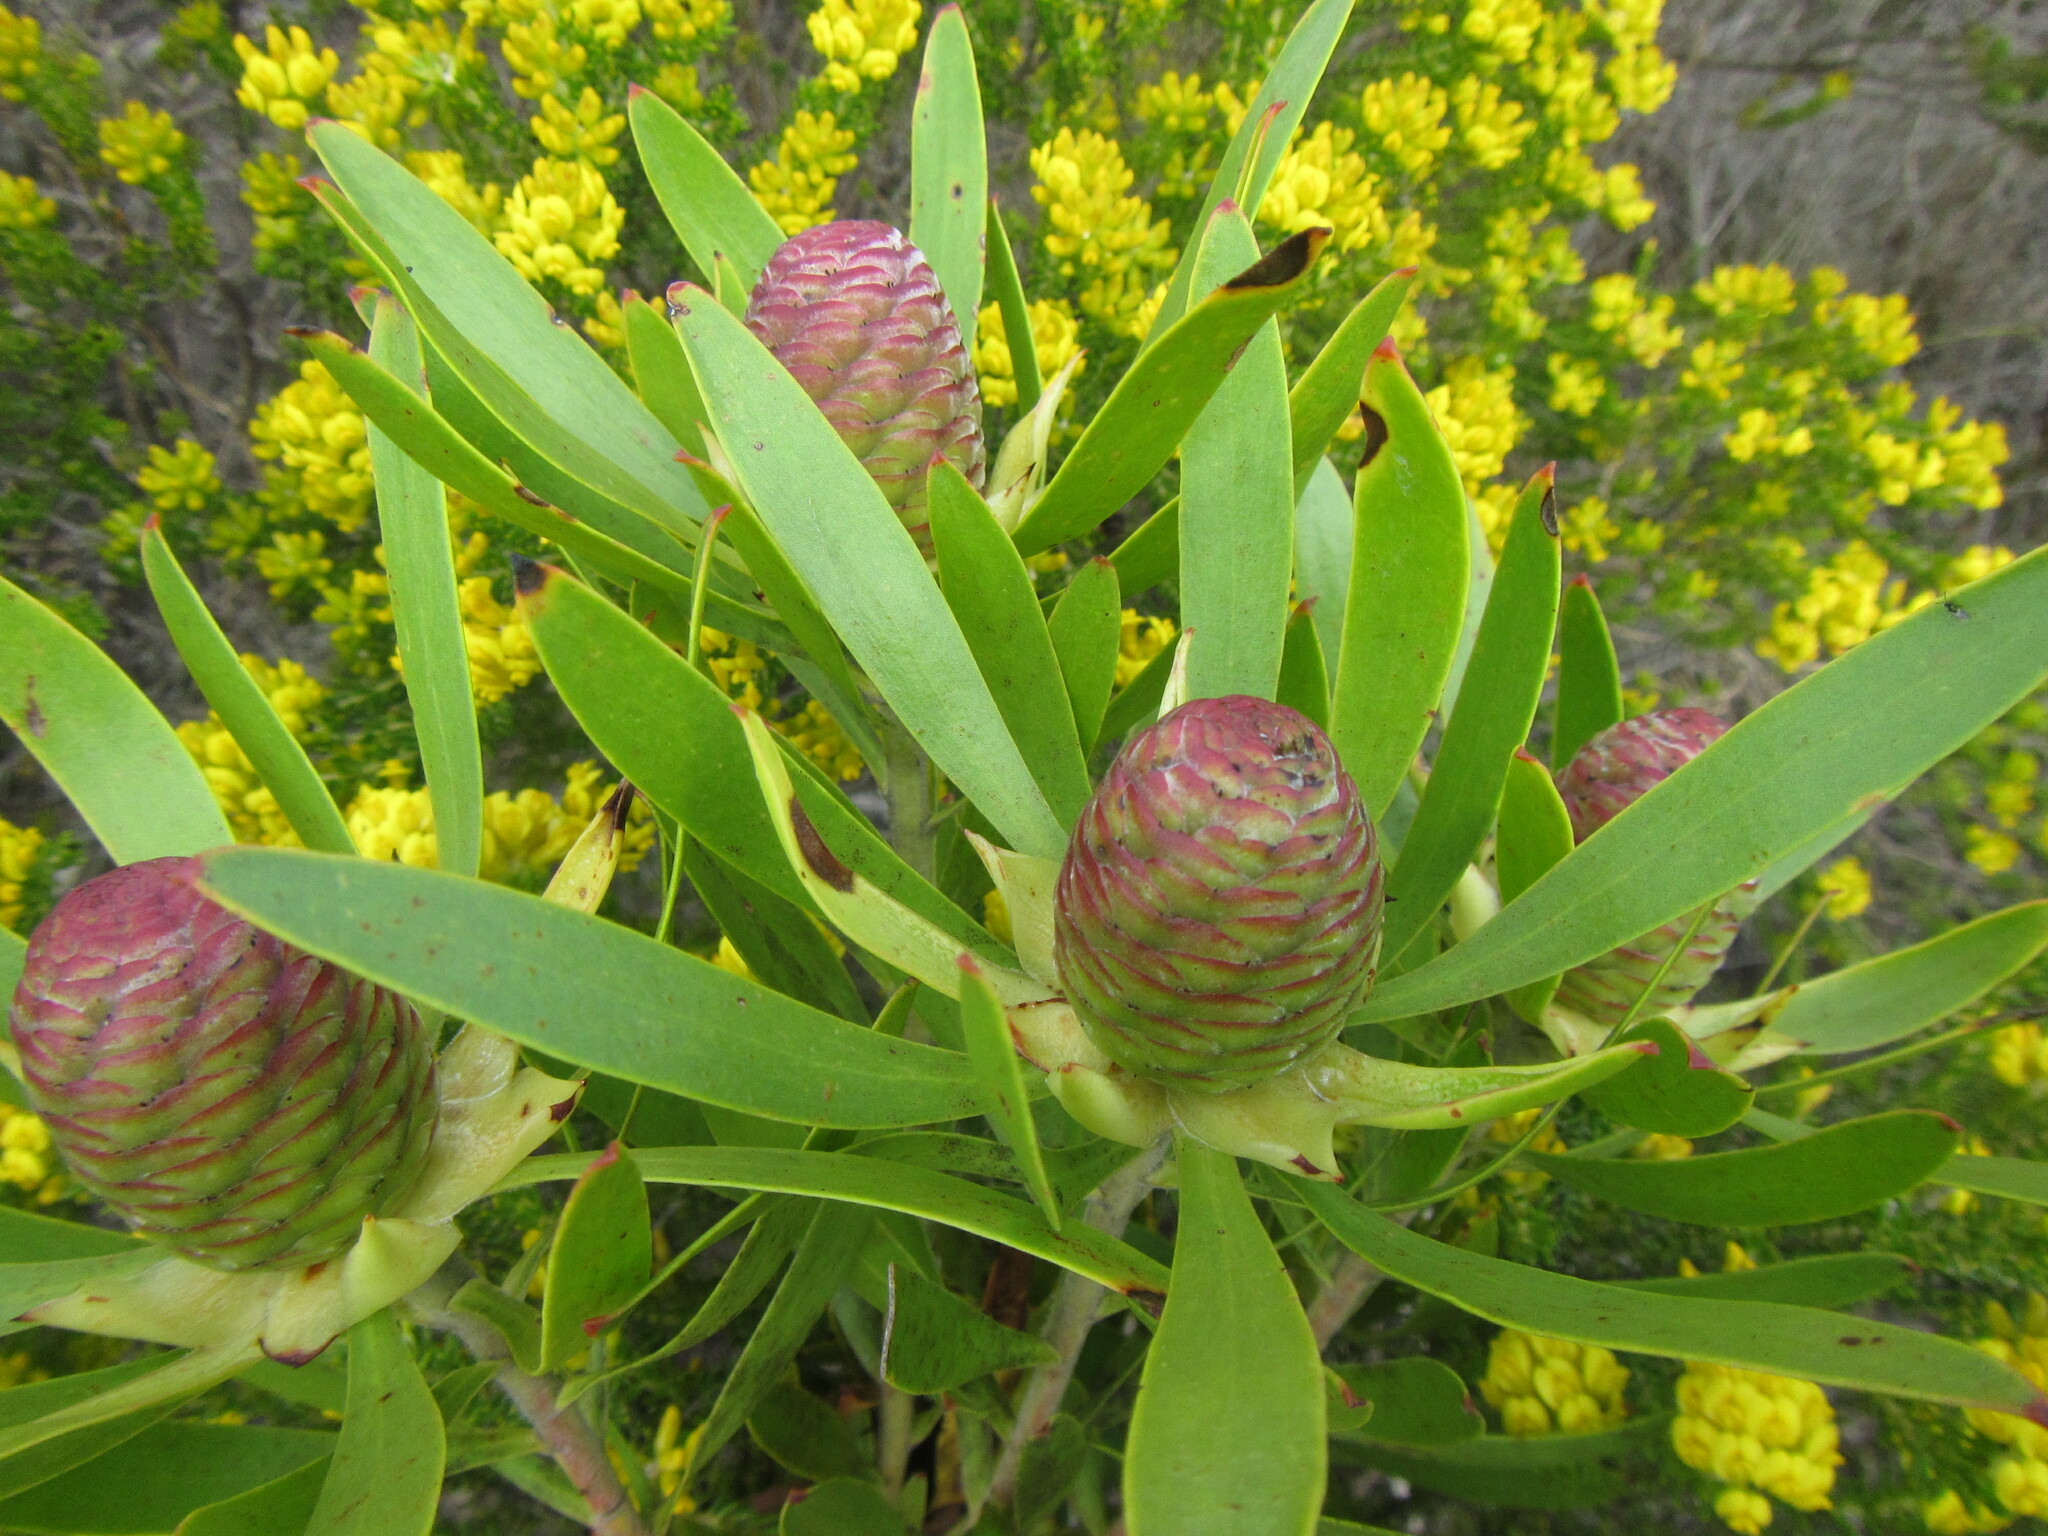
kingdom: Plantae
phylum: Tracheophyta
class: Magnoliopsida
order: Proteales
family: Proteaceae
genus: Leucadendron
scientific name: Leucadendron eucalyptifolium
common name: Gum-leaved conebush
